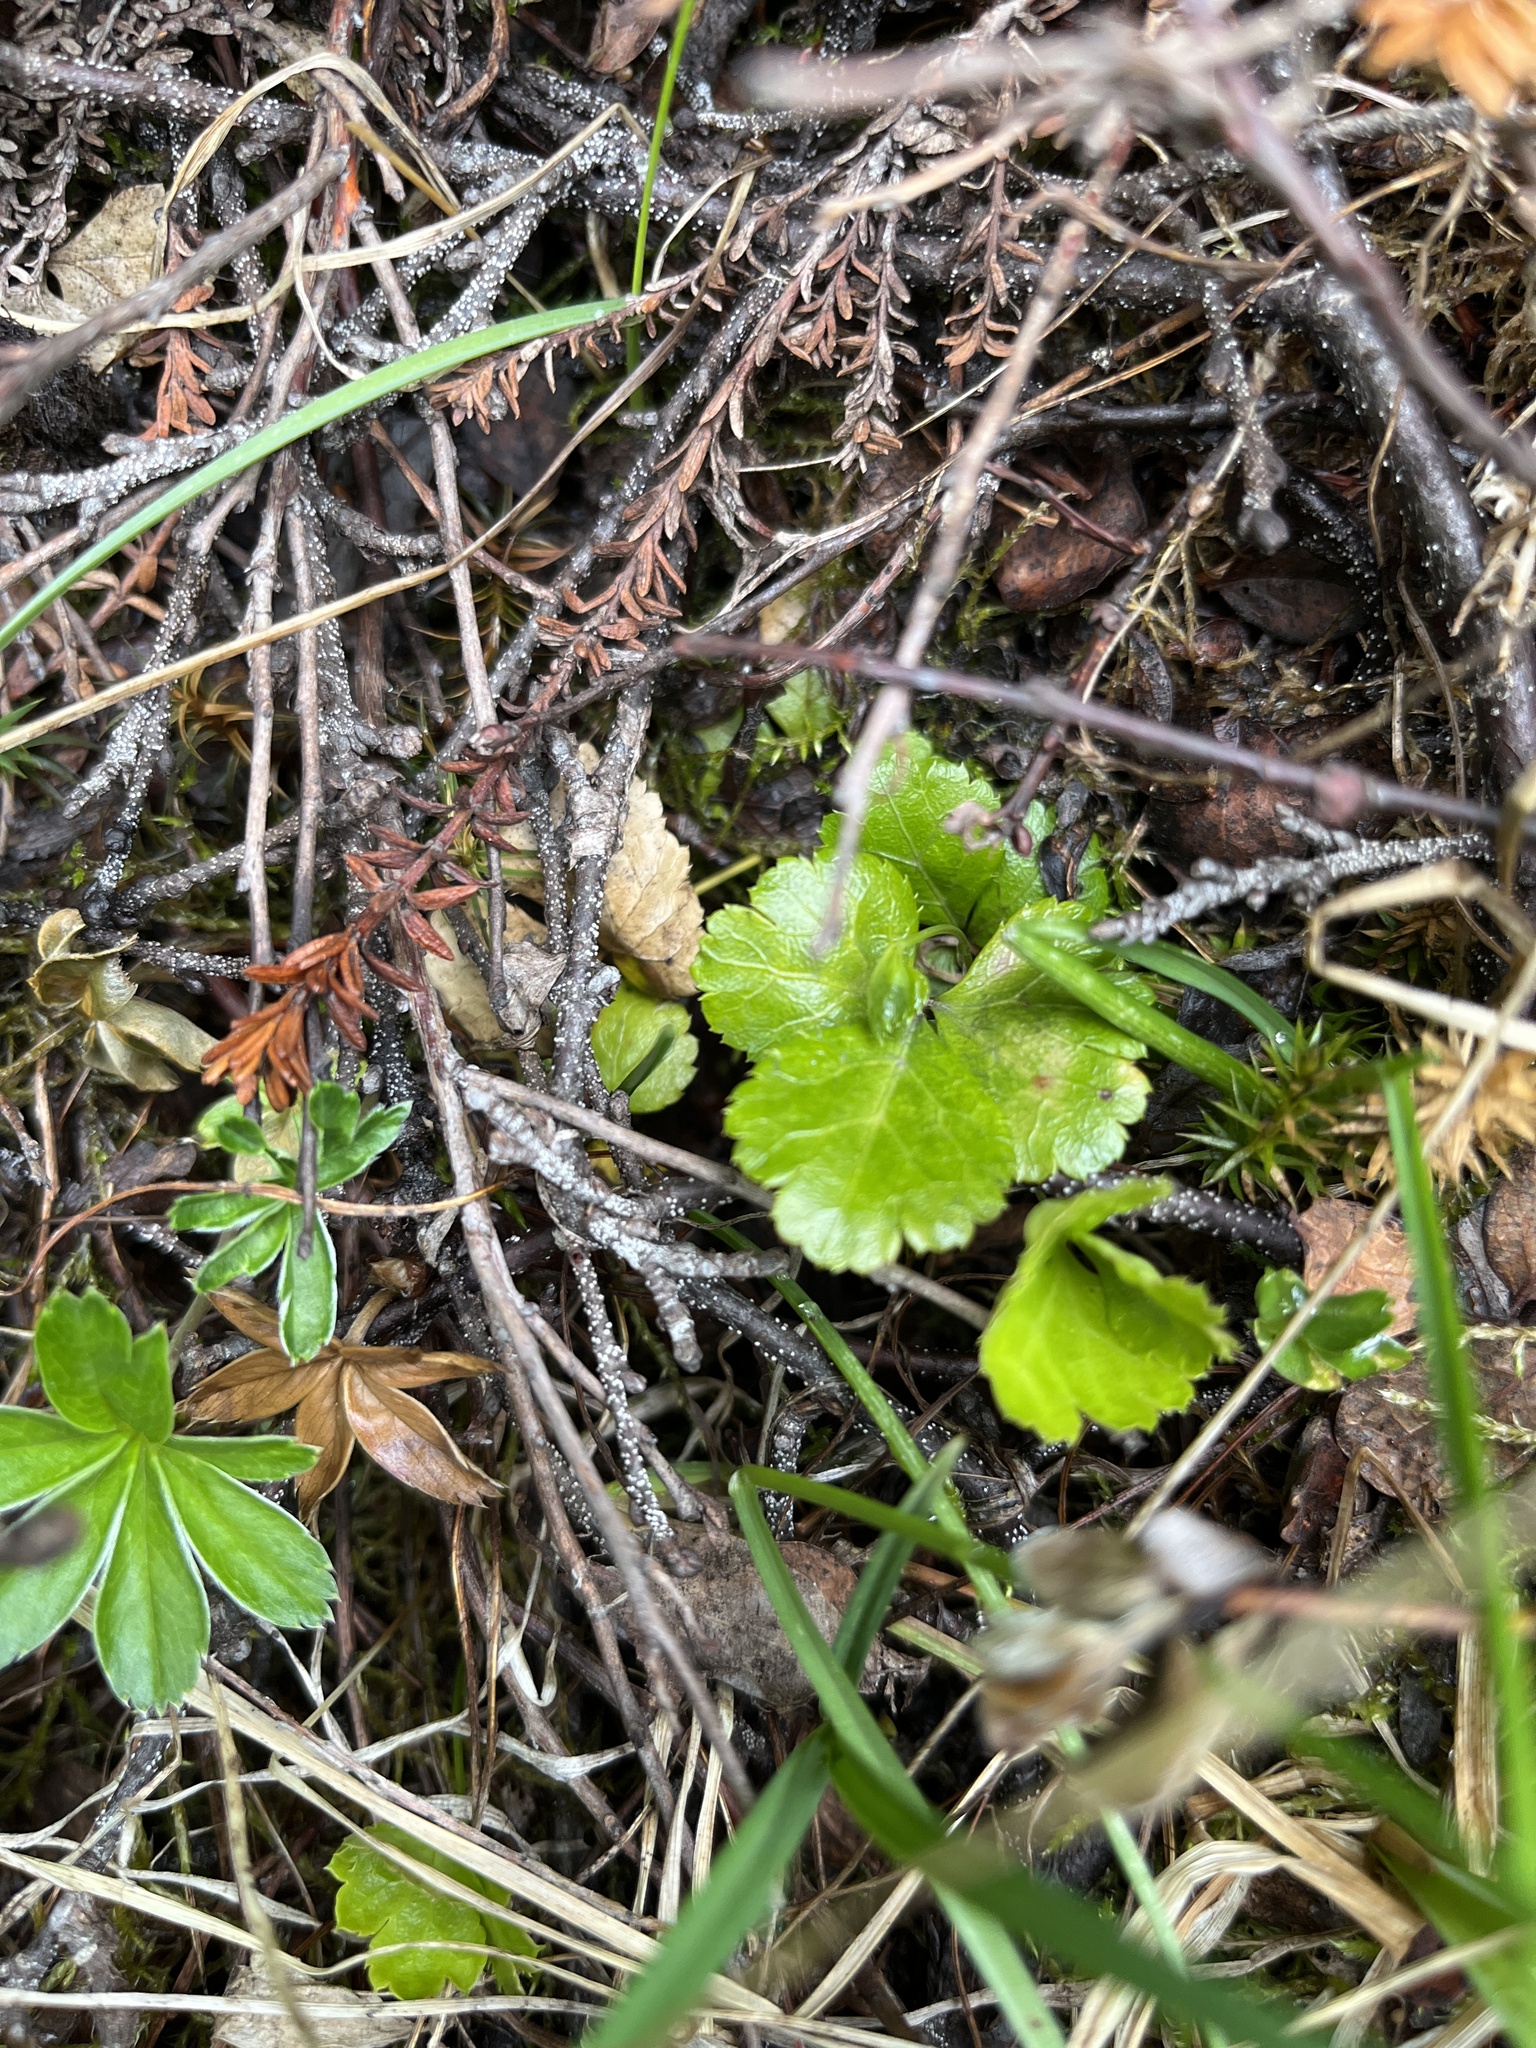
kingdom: Plantae
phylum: Tracheophyta
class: Magnoliopsida
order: Ranunculales
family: Ranunculaceae
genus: Coptis
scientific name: Coptis trifolia
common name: Canker-root
